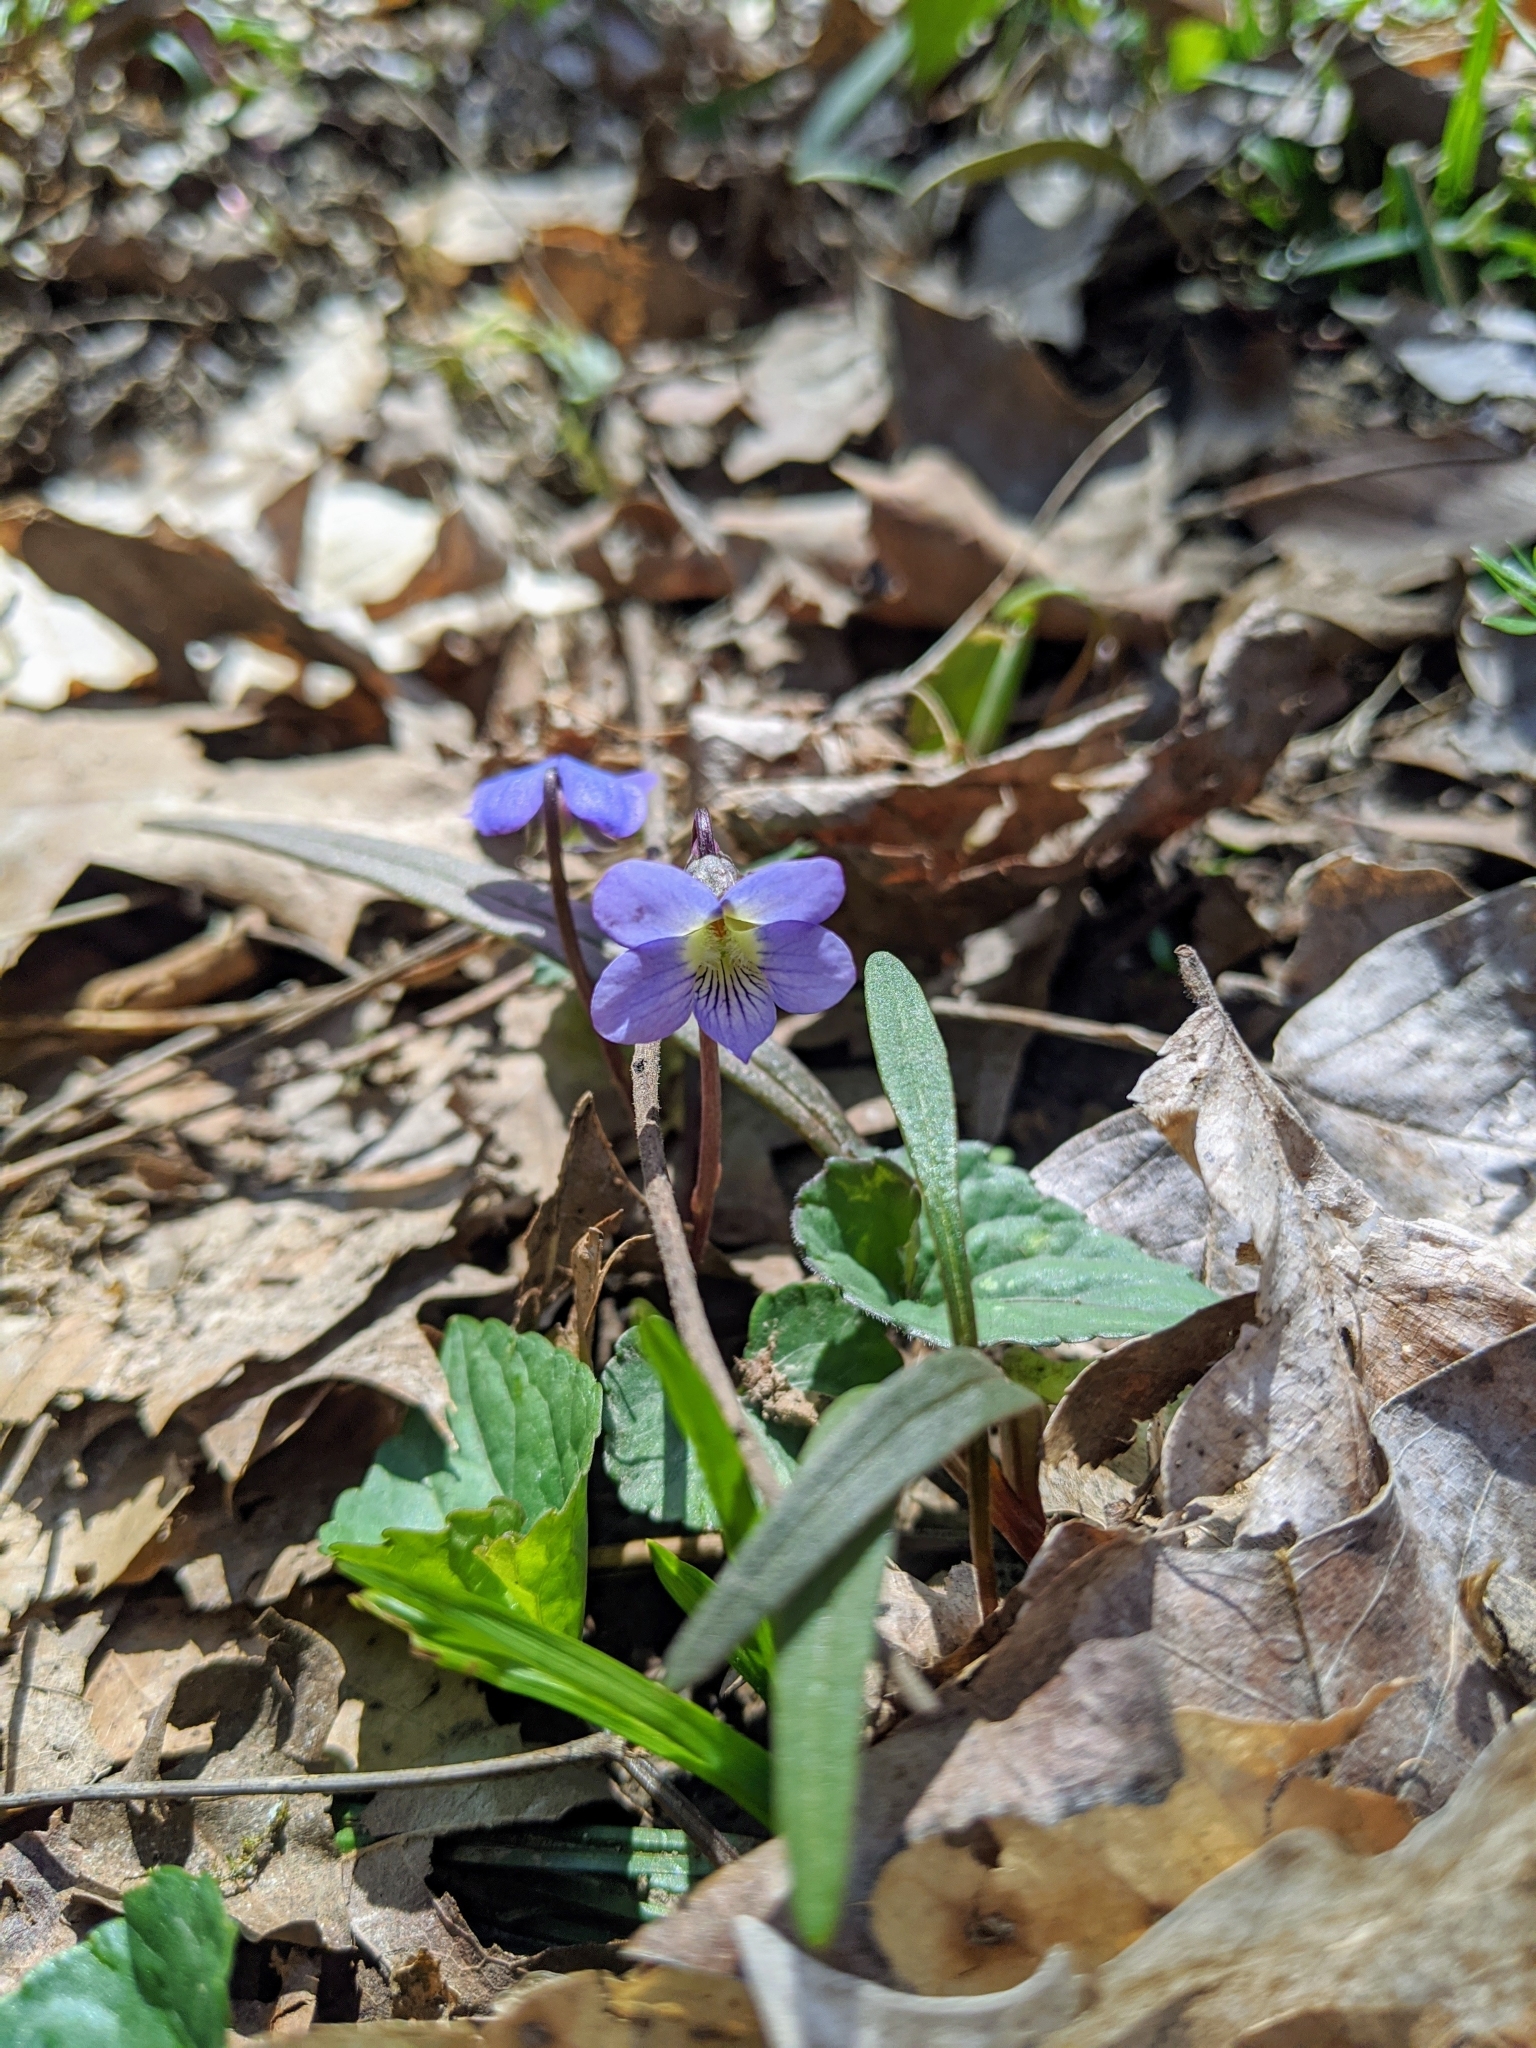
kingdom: Plantae
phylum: Tracheophyta
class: Magnoliopsida
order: Malpighiales
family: Violaceae
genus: Viola
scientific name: Viola sororia
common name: Dooryard violet
